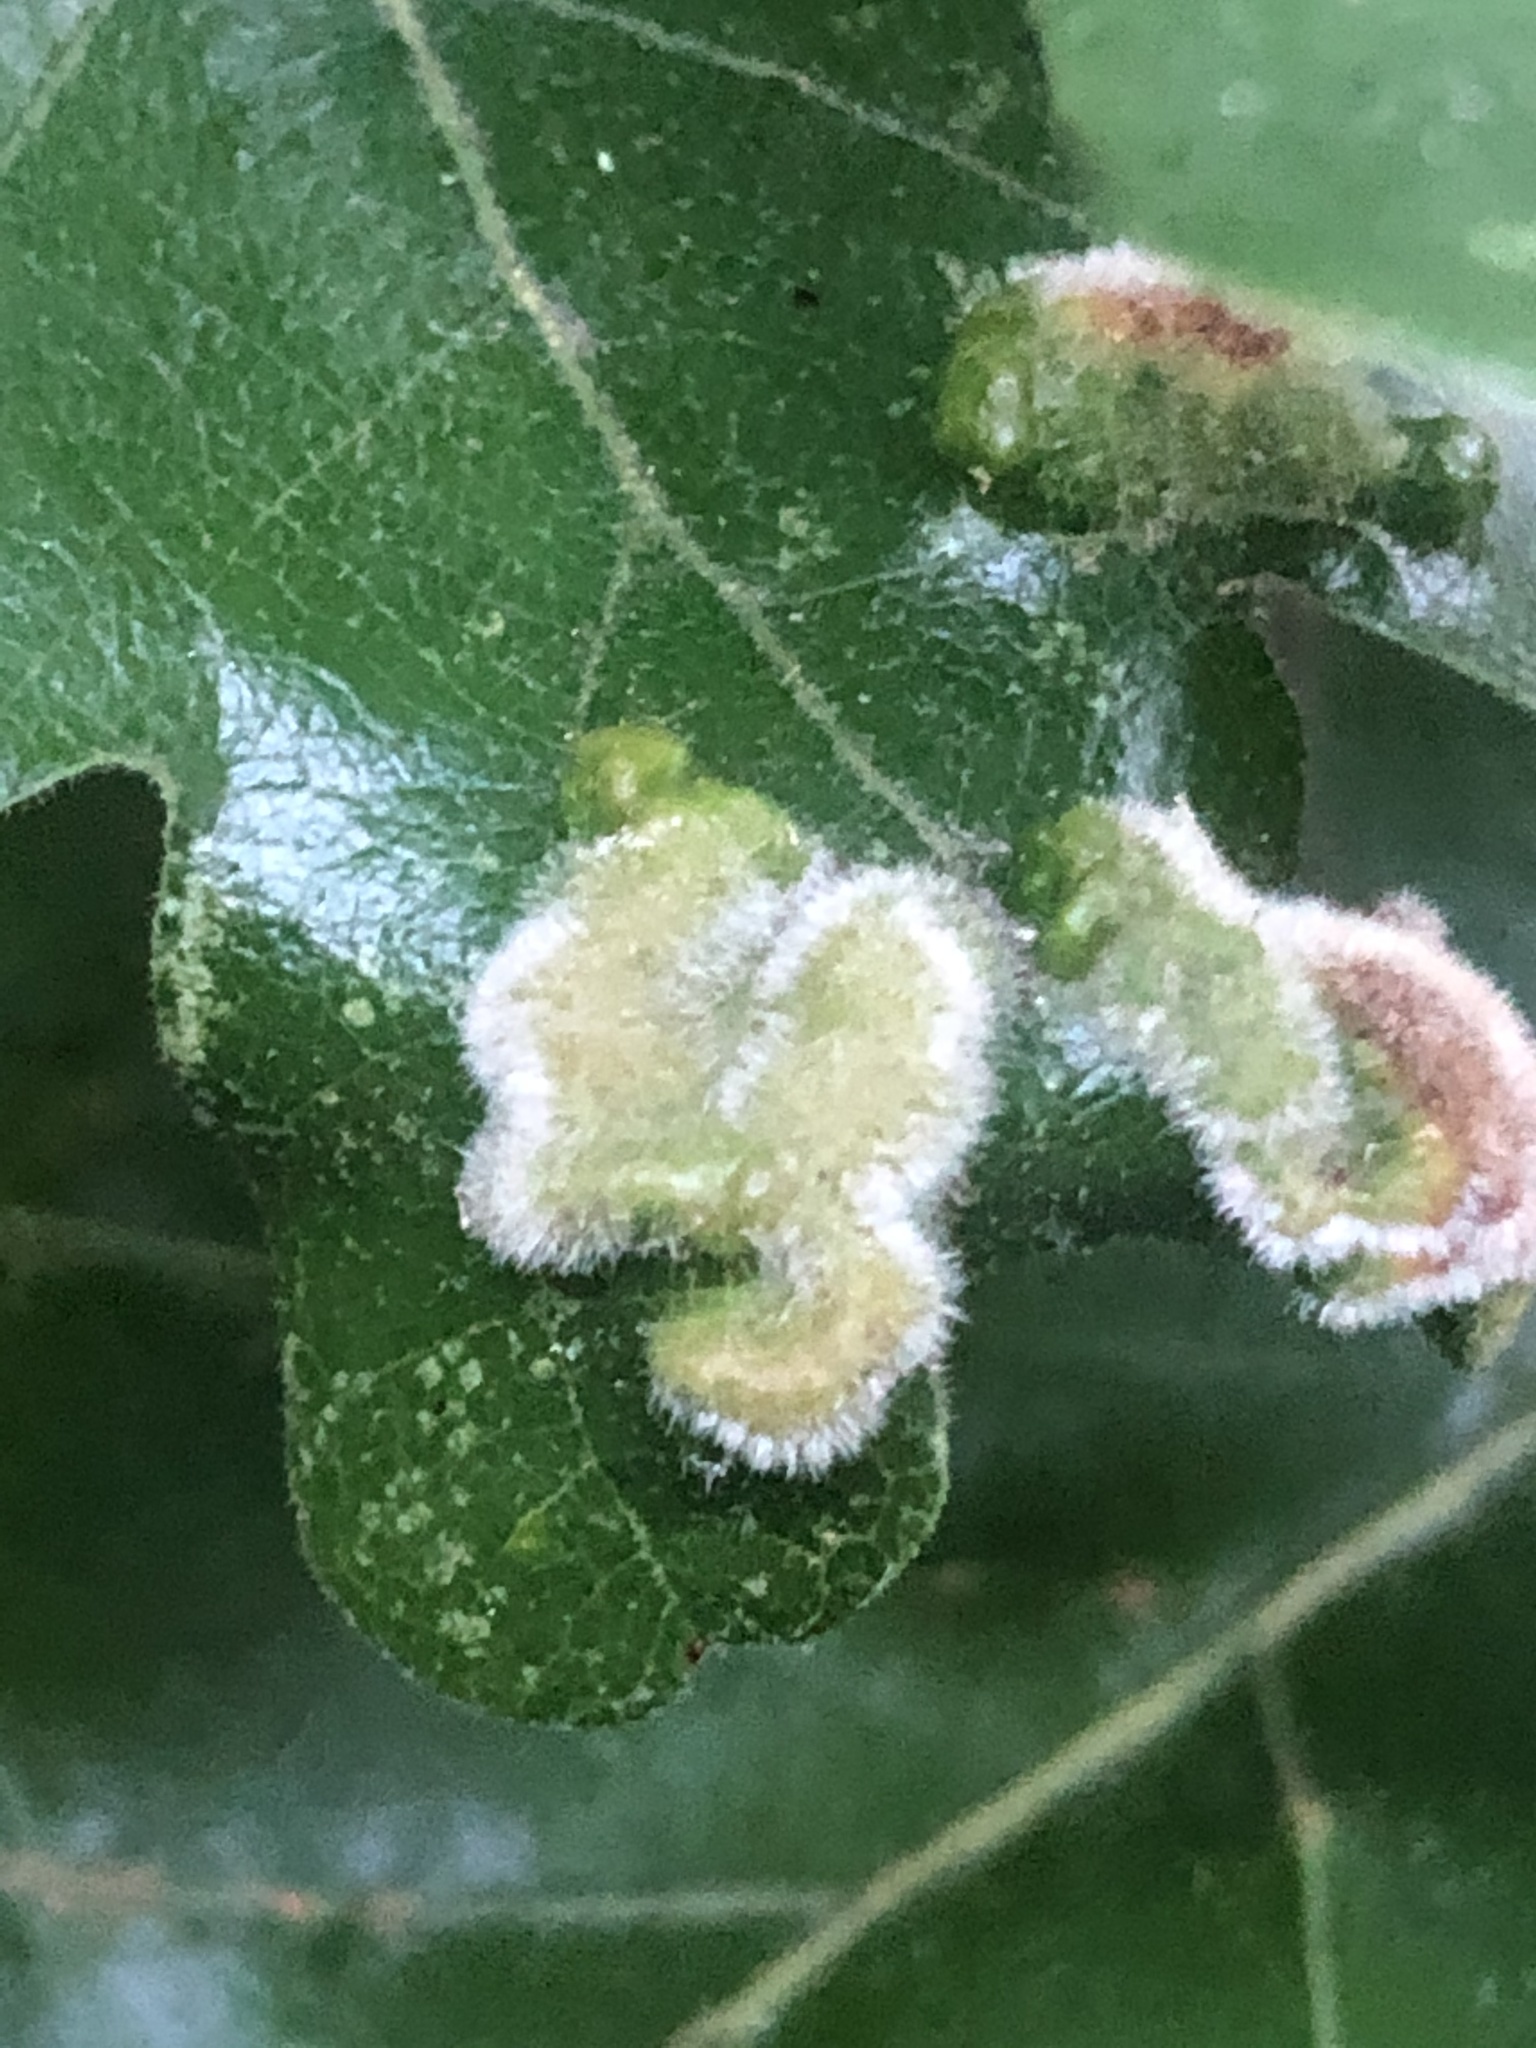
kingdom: Animalia
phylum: Arthropoda
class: Arachnida
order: Trombidiformes
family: Eriophyidae
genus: Aceria
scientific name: Aceria
